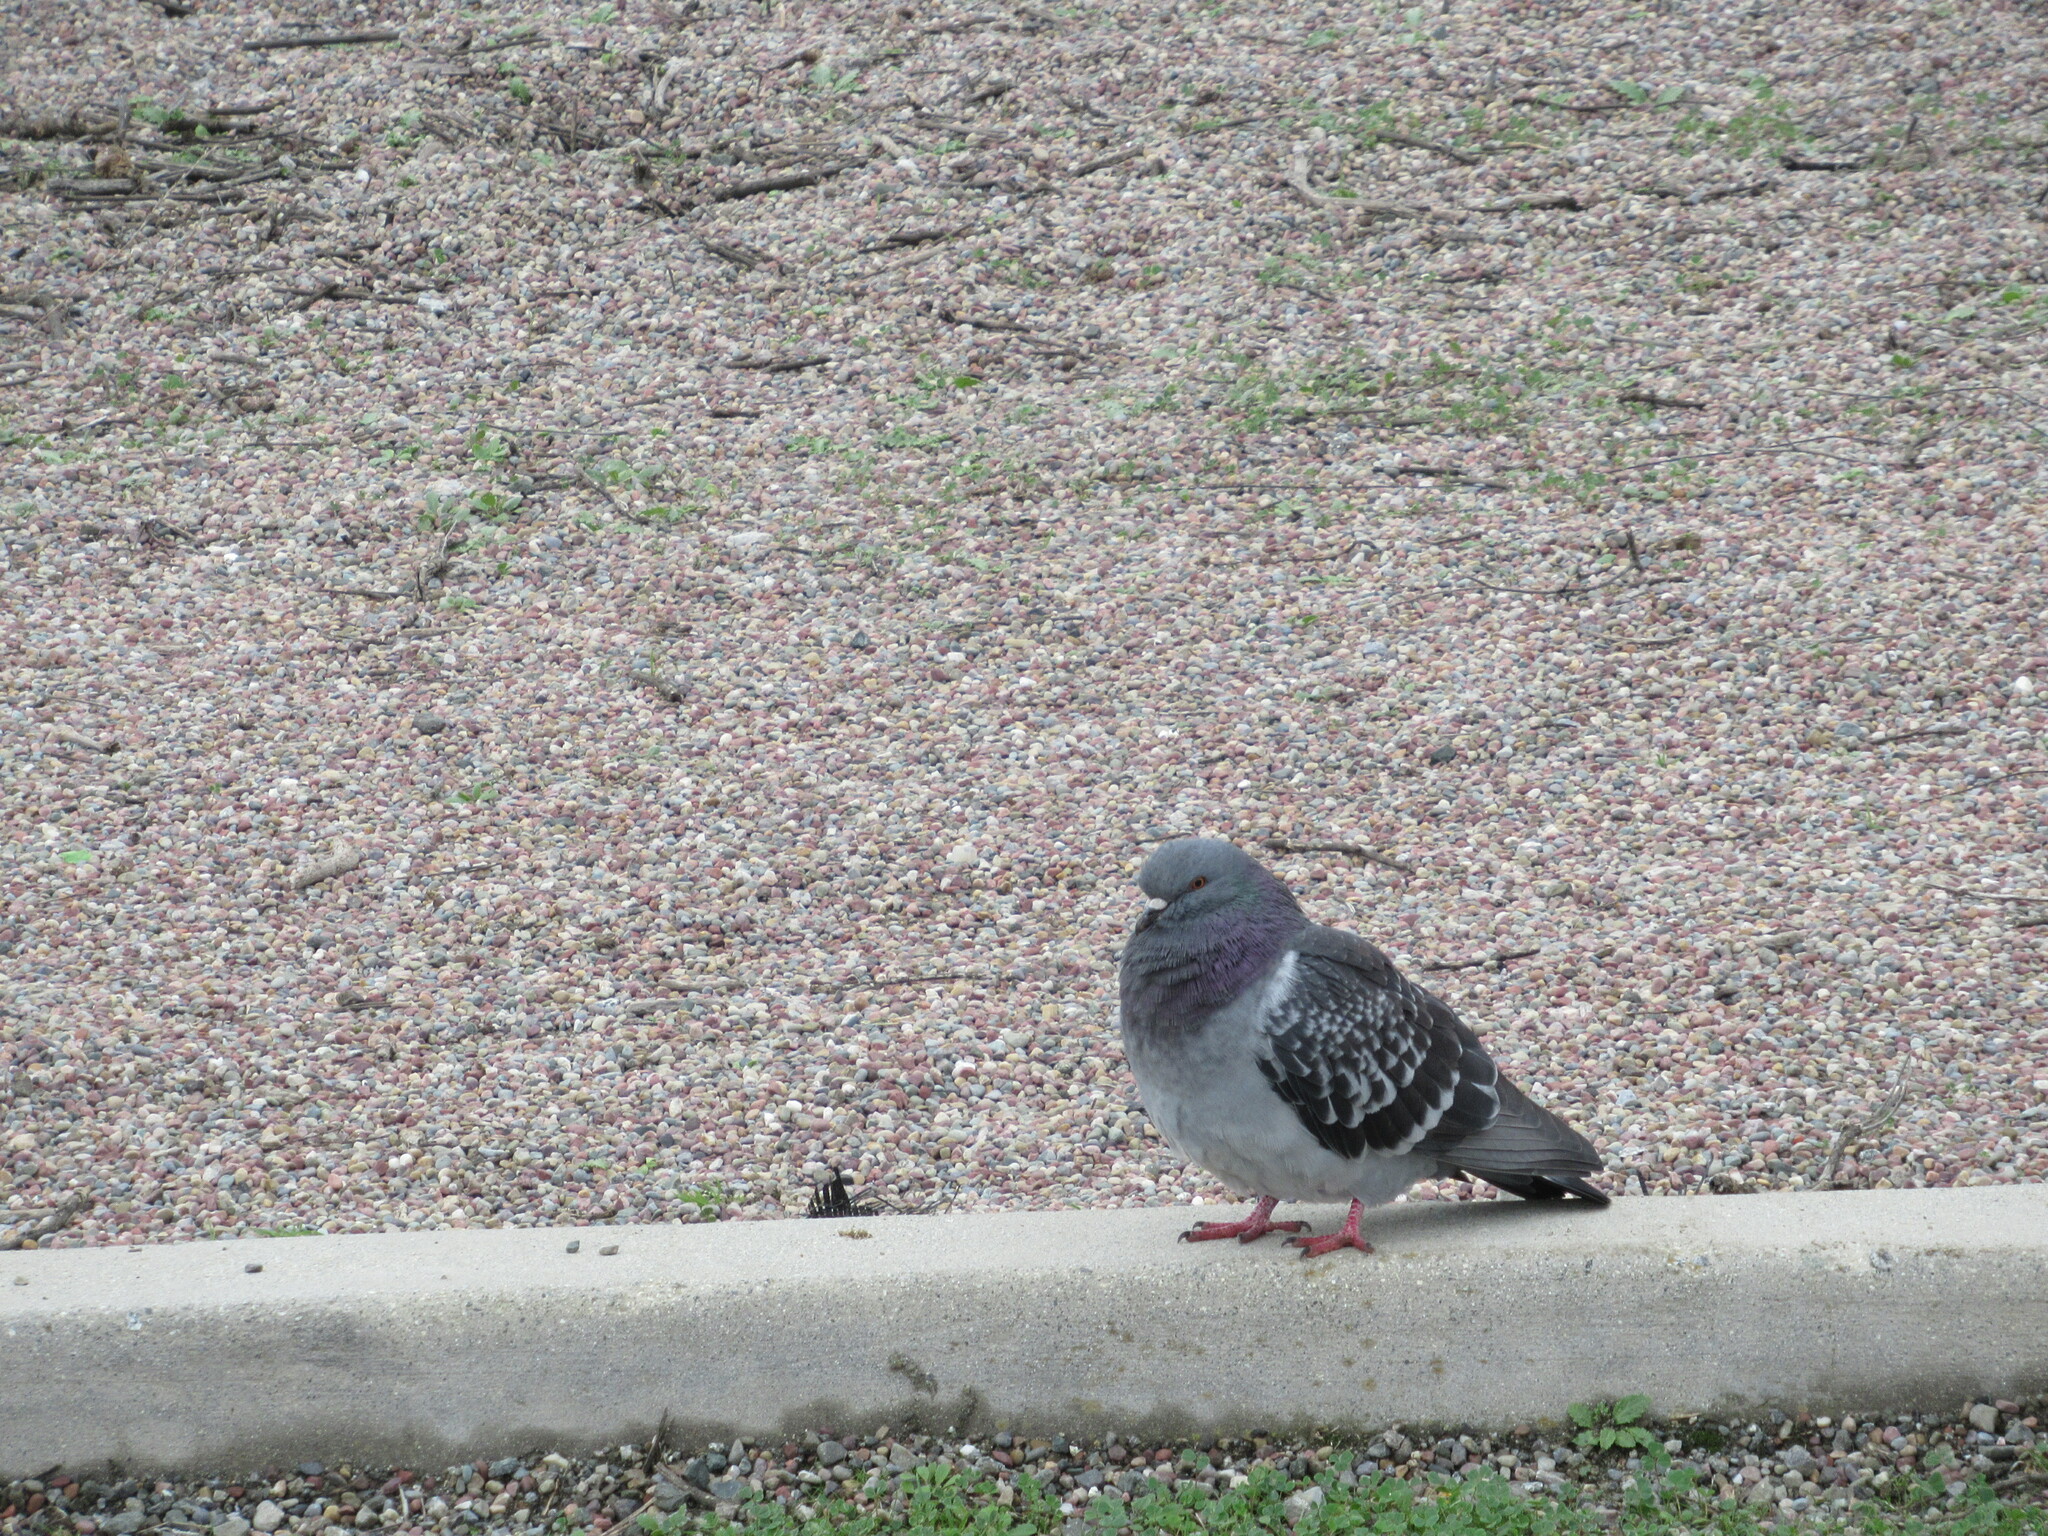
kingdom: Animalia
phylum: Chordata
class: Aves
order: Columbiformes
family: Columbidae
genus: Columba
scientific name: Columba livia
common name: Rock pigeon
